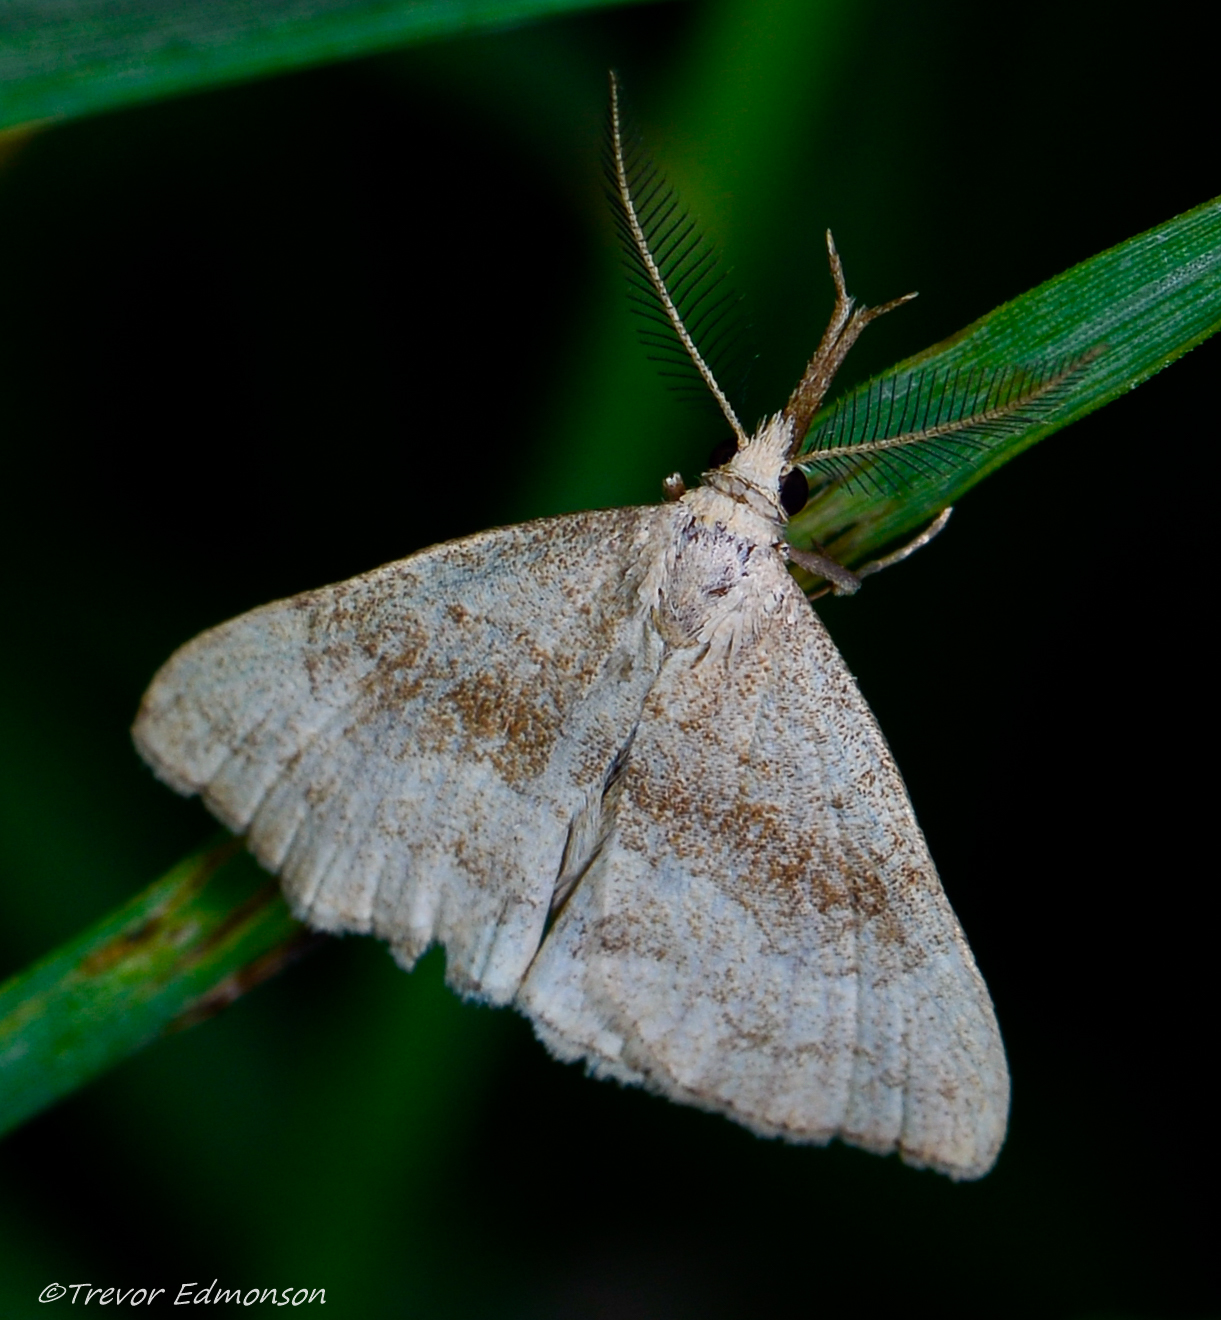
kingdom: Animalia
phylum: Arthropoda
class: Insecta
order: Lepidoptera
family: Erebidae
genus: Phalaenostola
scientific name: Phalaenostola metonalis
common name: Pale phalaenostola moth
